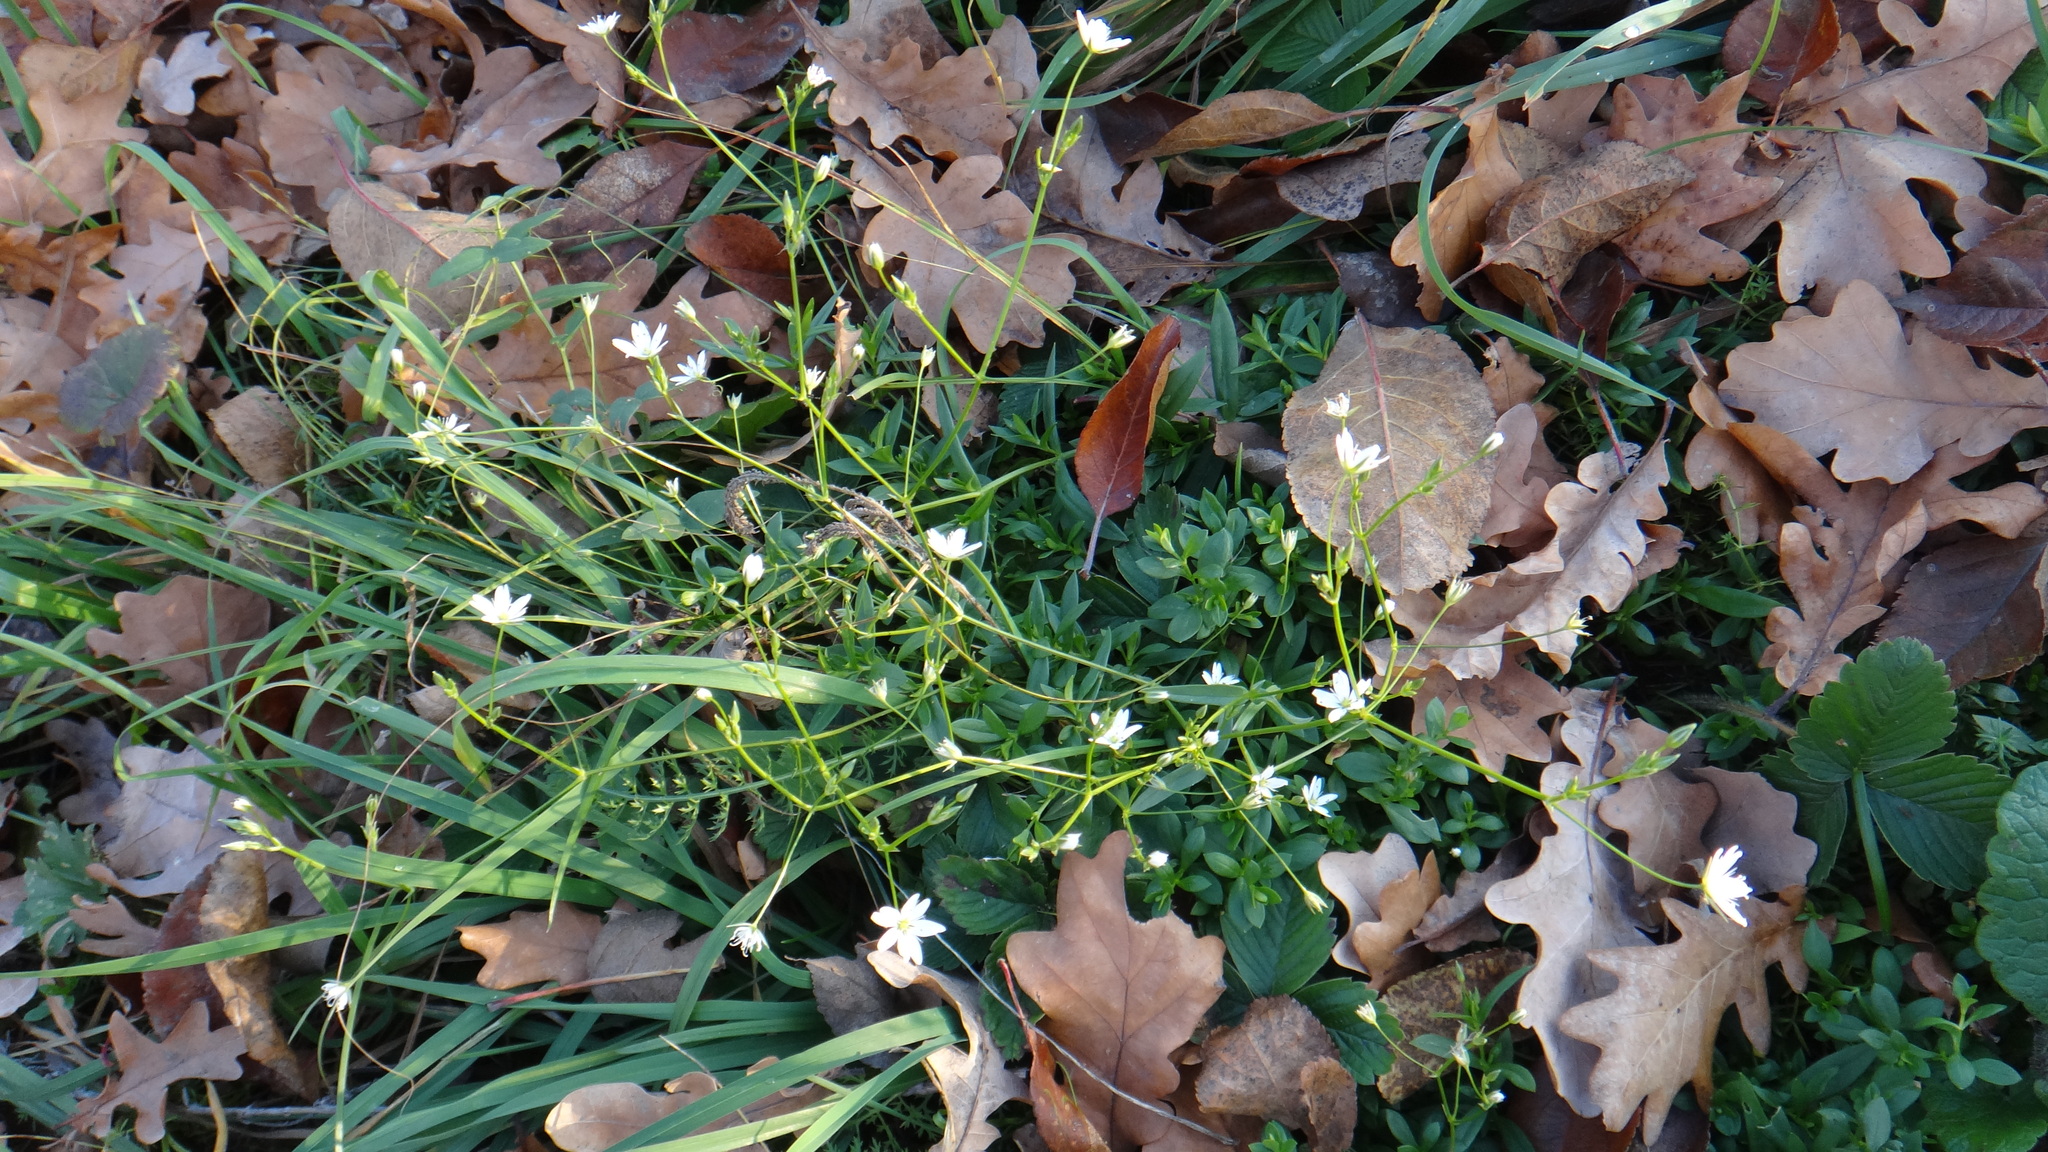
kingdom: Plantae
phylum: Tracheophyta
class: Magnoliopsida
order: Caryophyllales
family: Caryophyllaceae
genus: Stellaria
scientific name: Stellaria graminea
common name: Grass-like starwort
